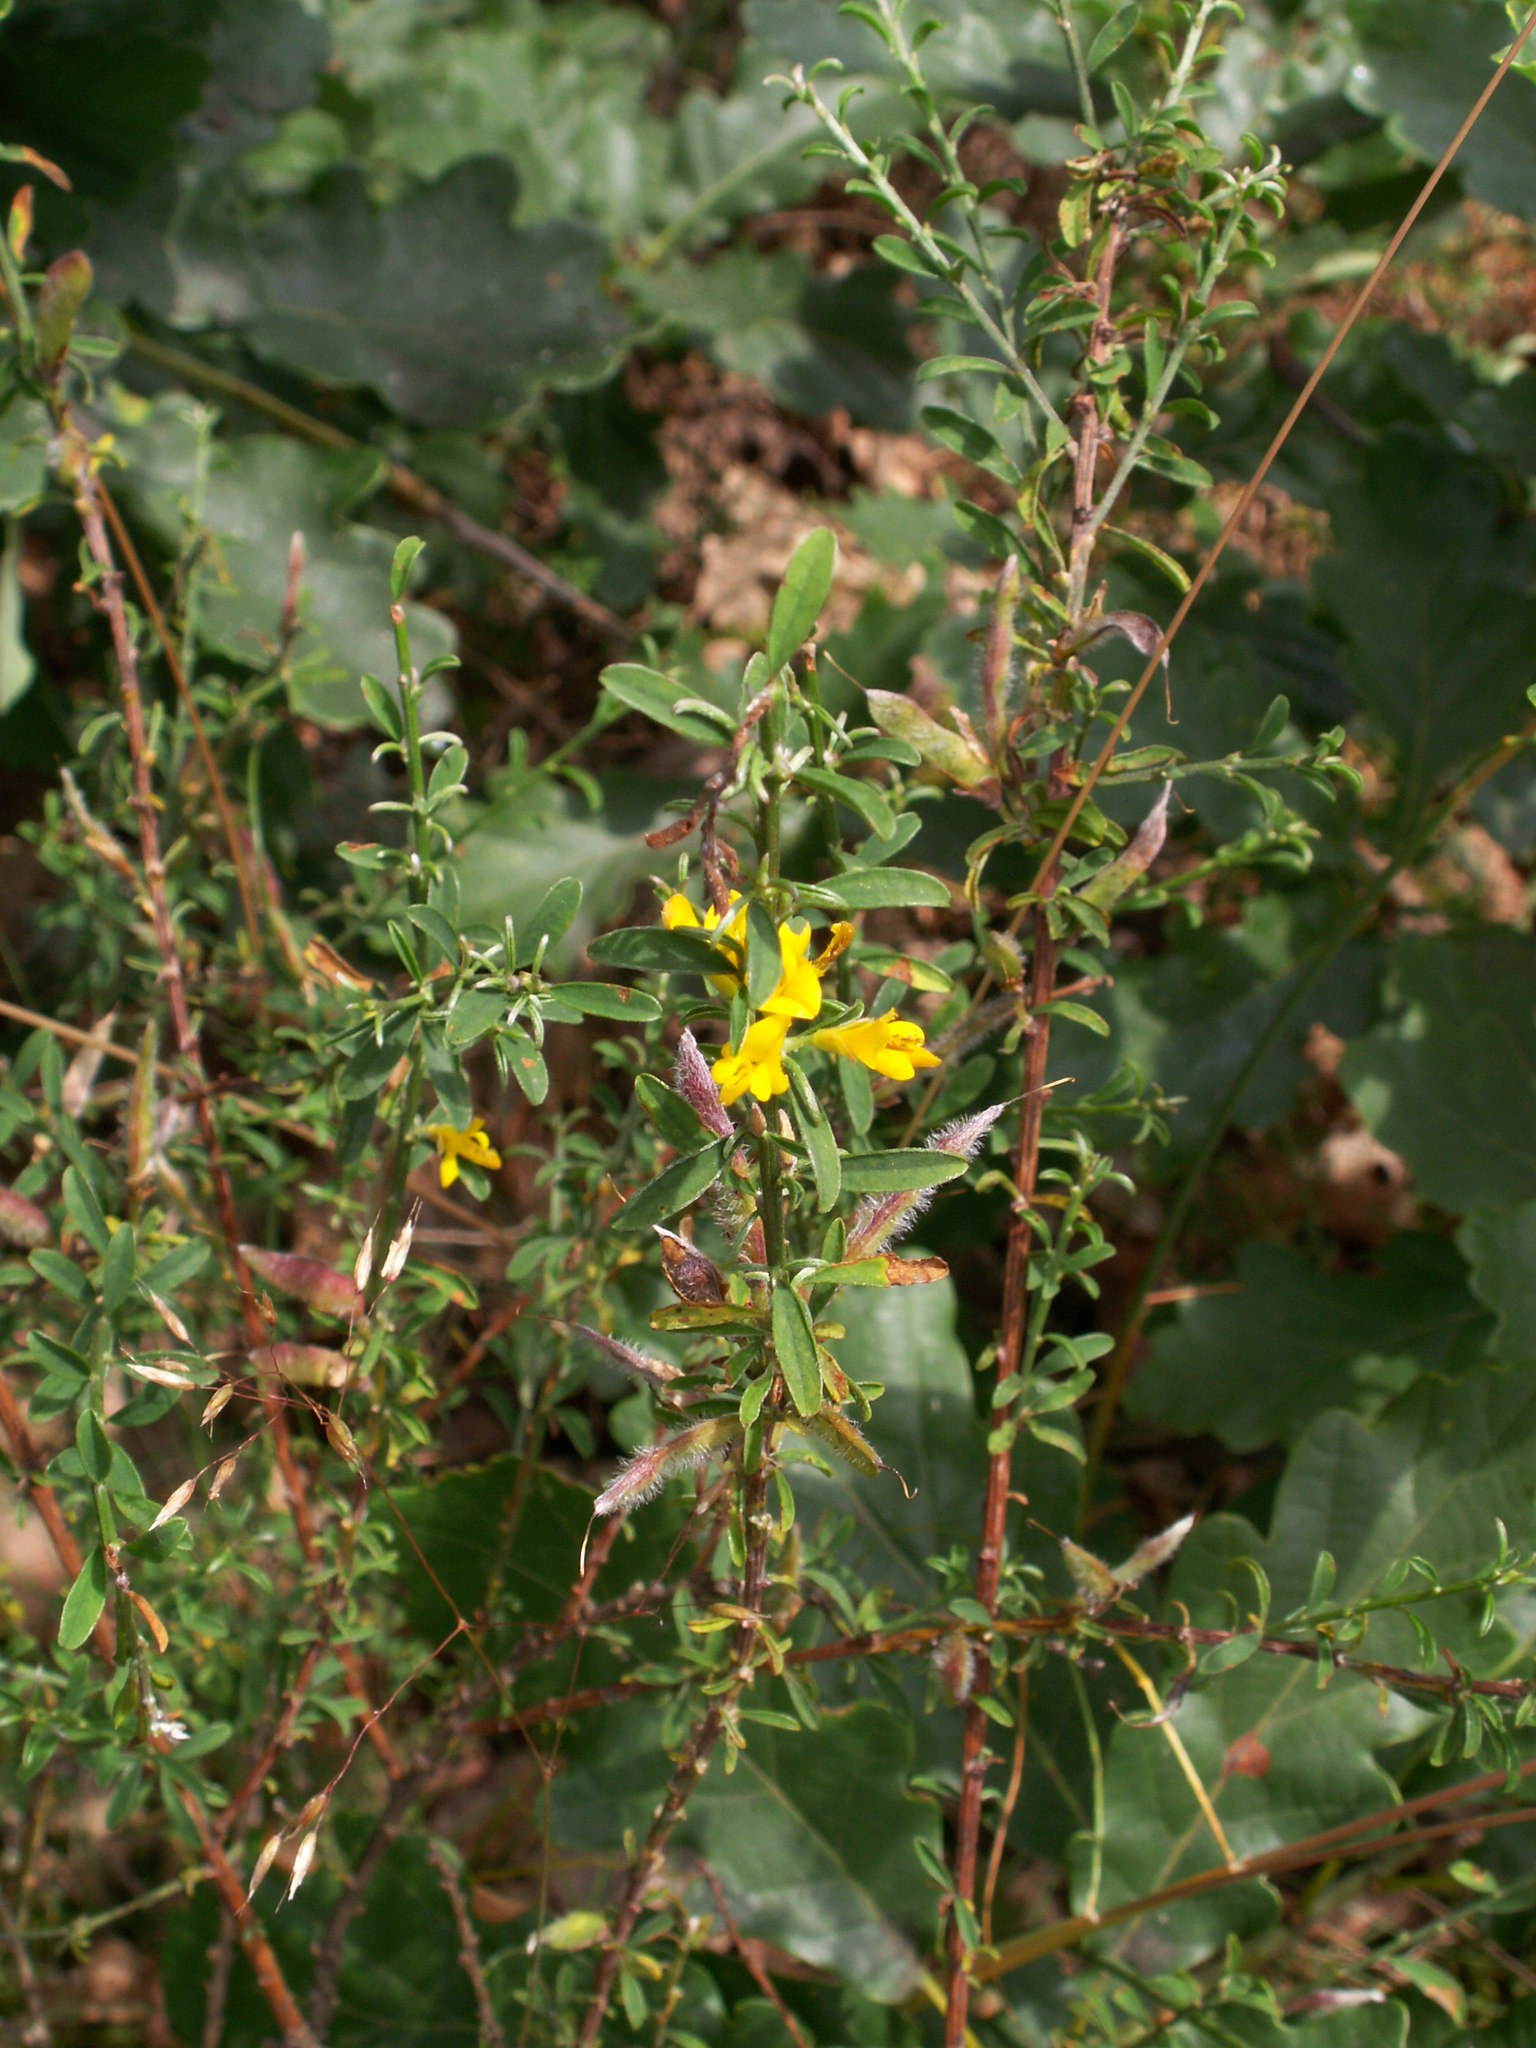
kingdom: Plantae
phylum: Tracheophyta
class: Magnoliopsida
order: Fabales
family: Fabaceae
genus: Genista
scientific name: Genista pilosa
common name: Hairy greenweed
